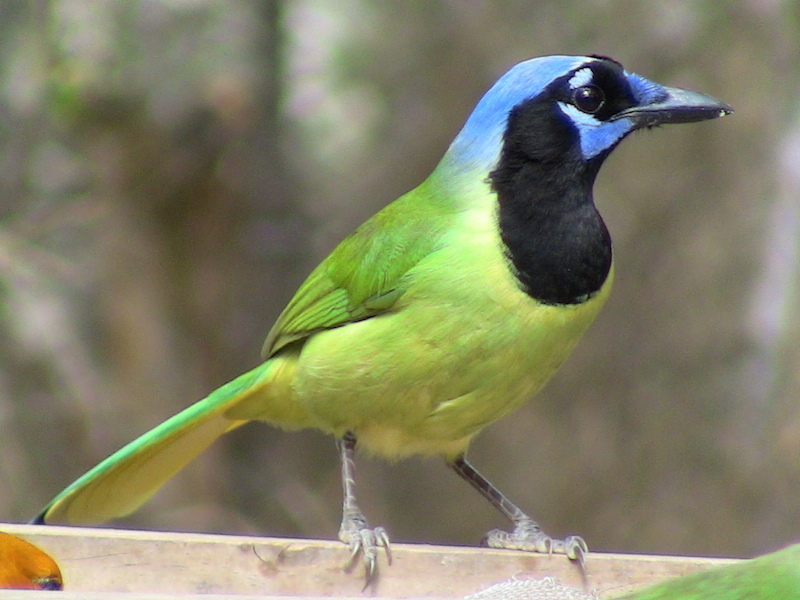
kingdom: Animalia
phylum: Chordata
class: Aves
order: Passeriformes
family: Corvidae
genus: Cyanocorax
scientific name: Cyanocorax yncas
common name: Green jay
